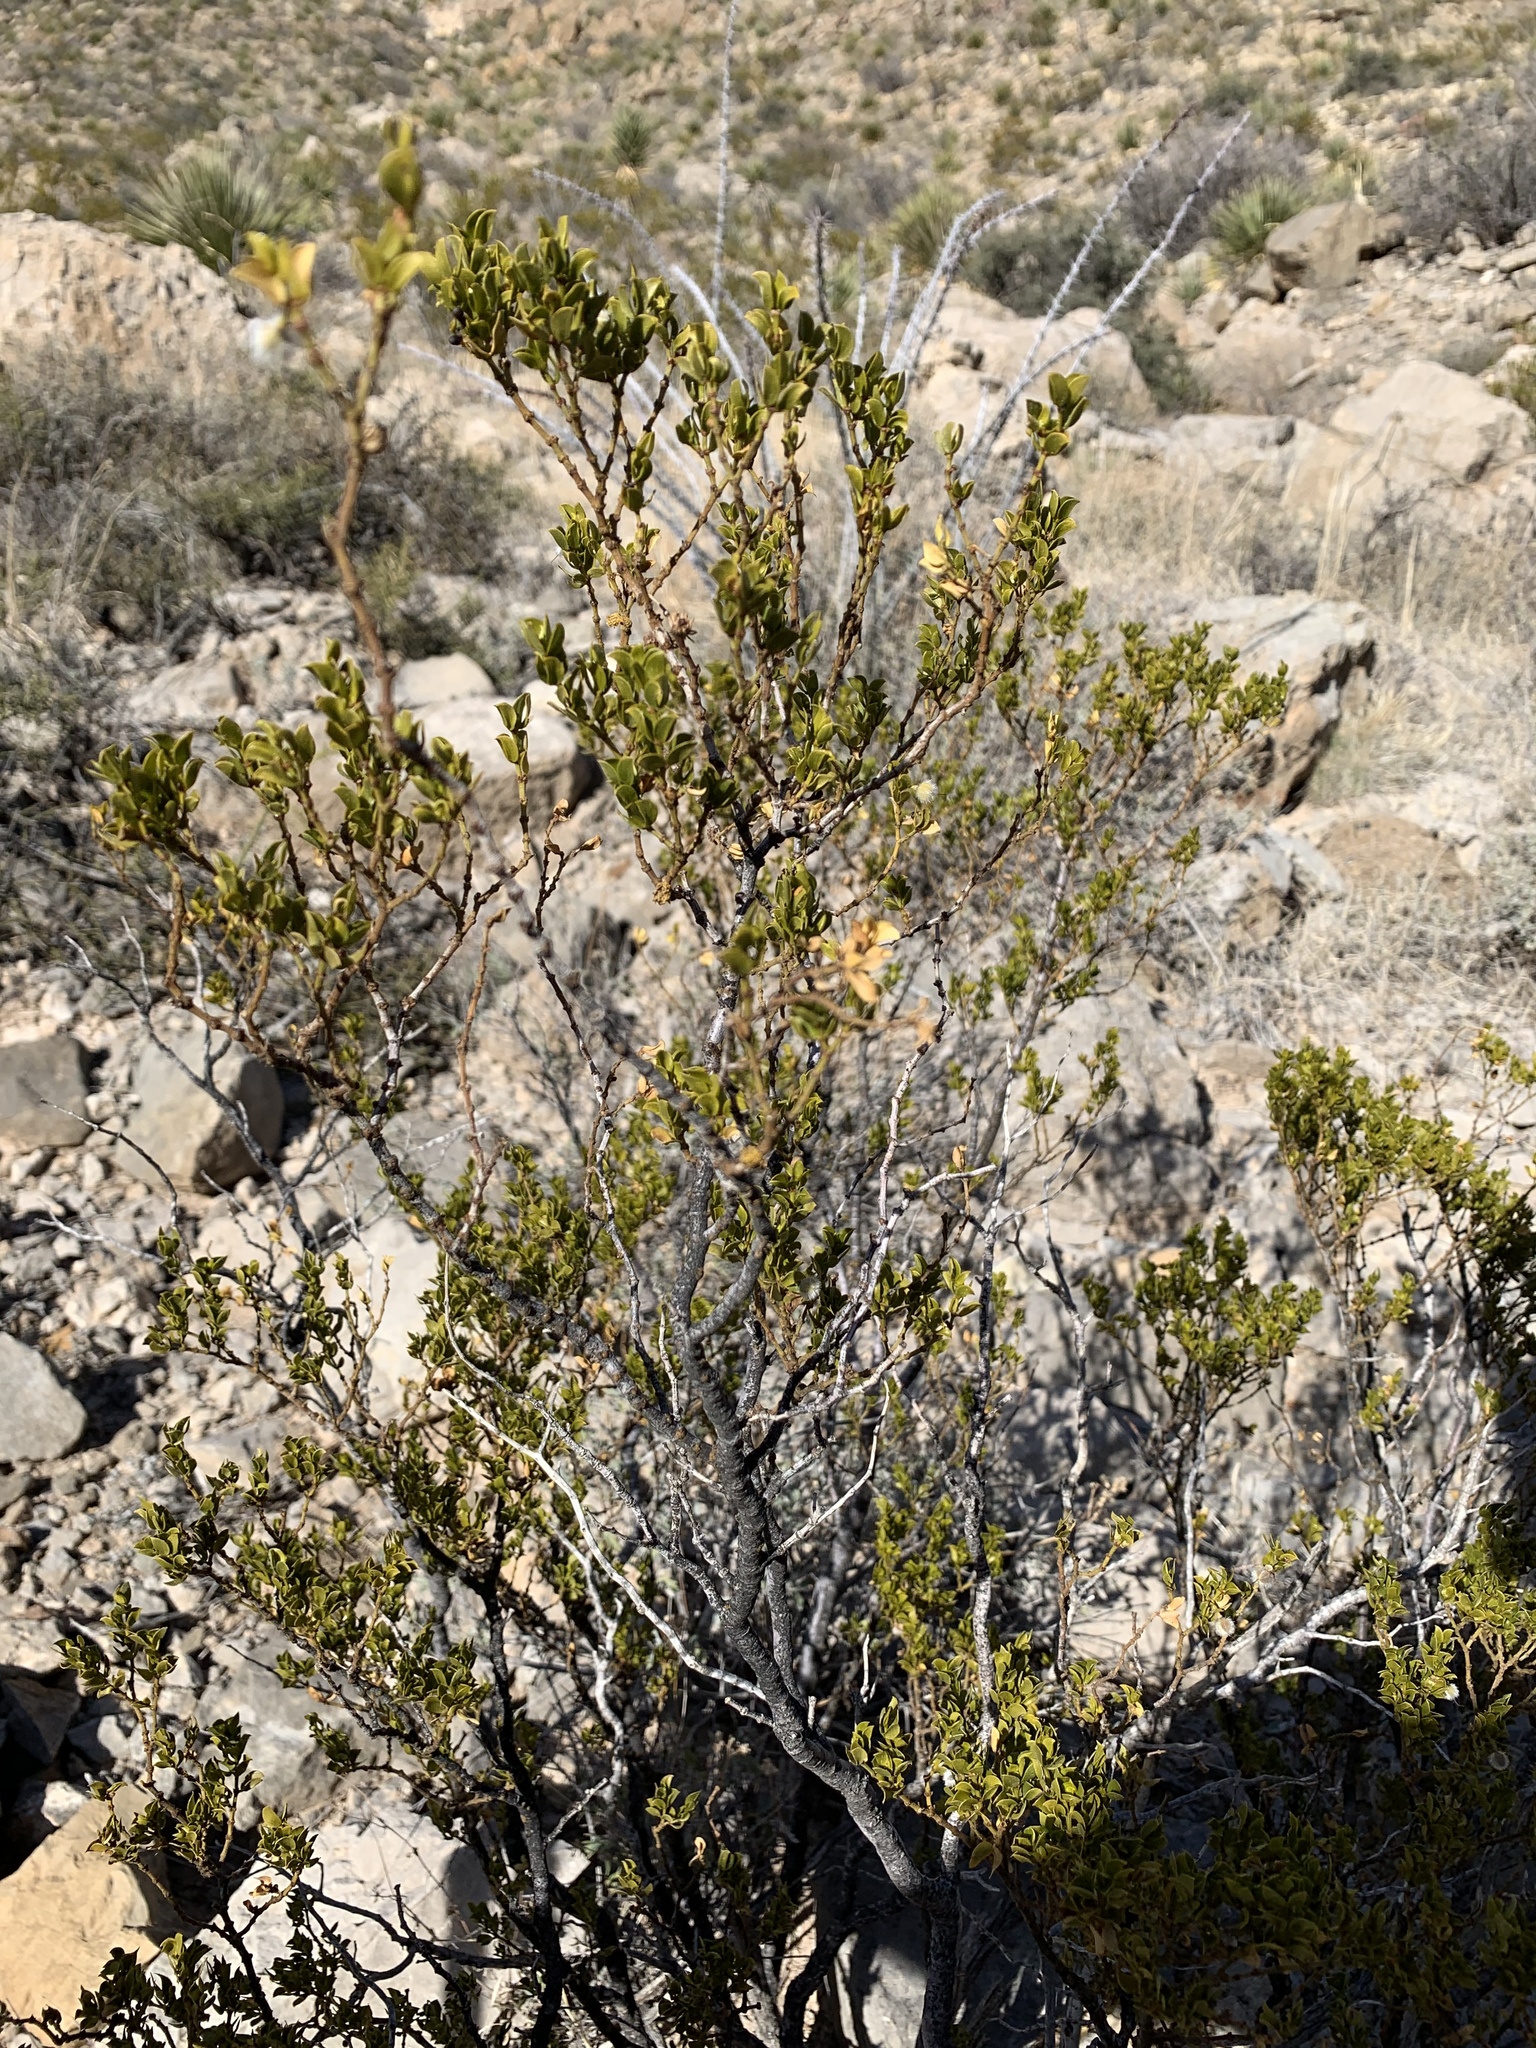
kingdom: Plantae
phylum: Tracheophyta
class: Magnoliopsida
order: Zygophyllales
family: Zygophyllaceae
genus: Larrea
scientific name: Larrea tridentata
